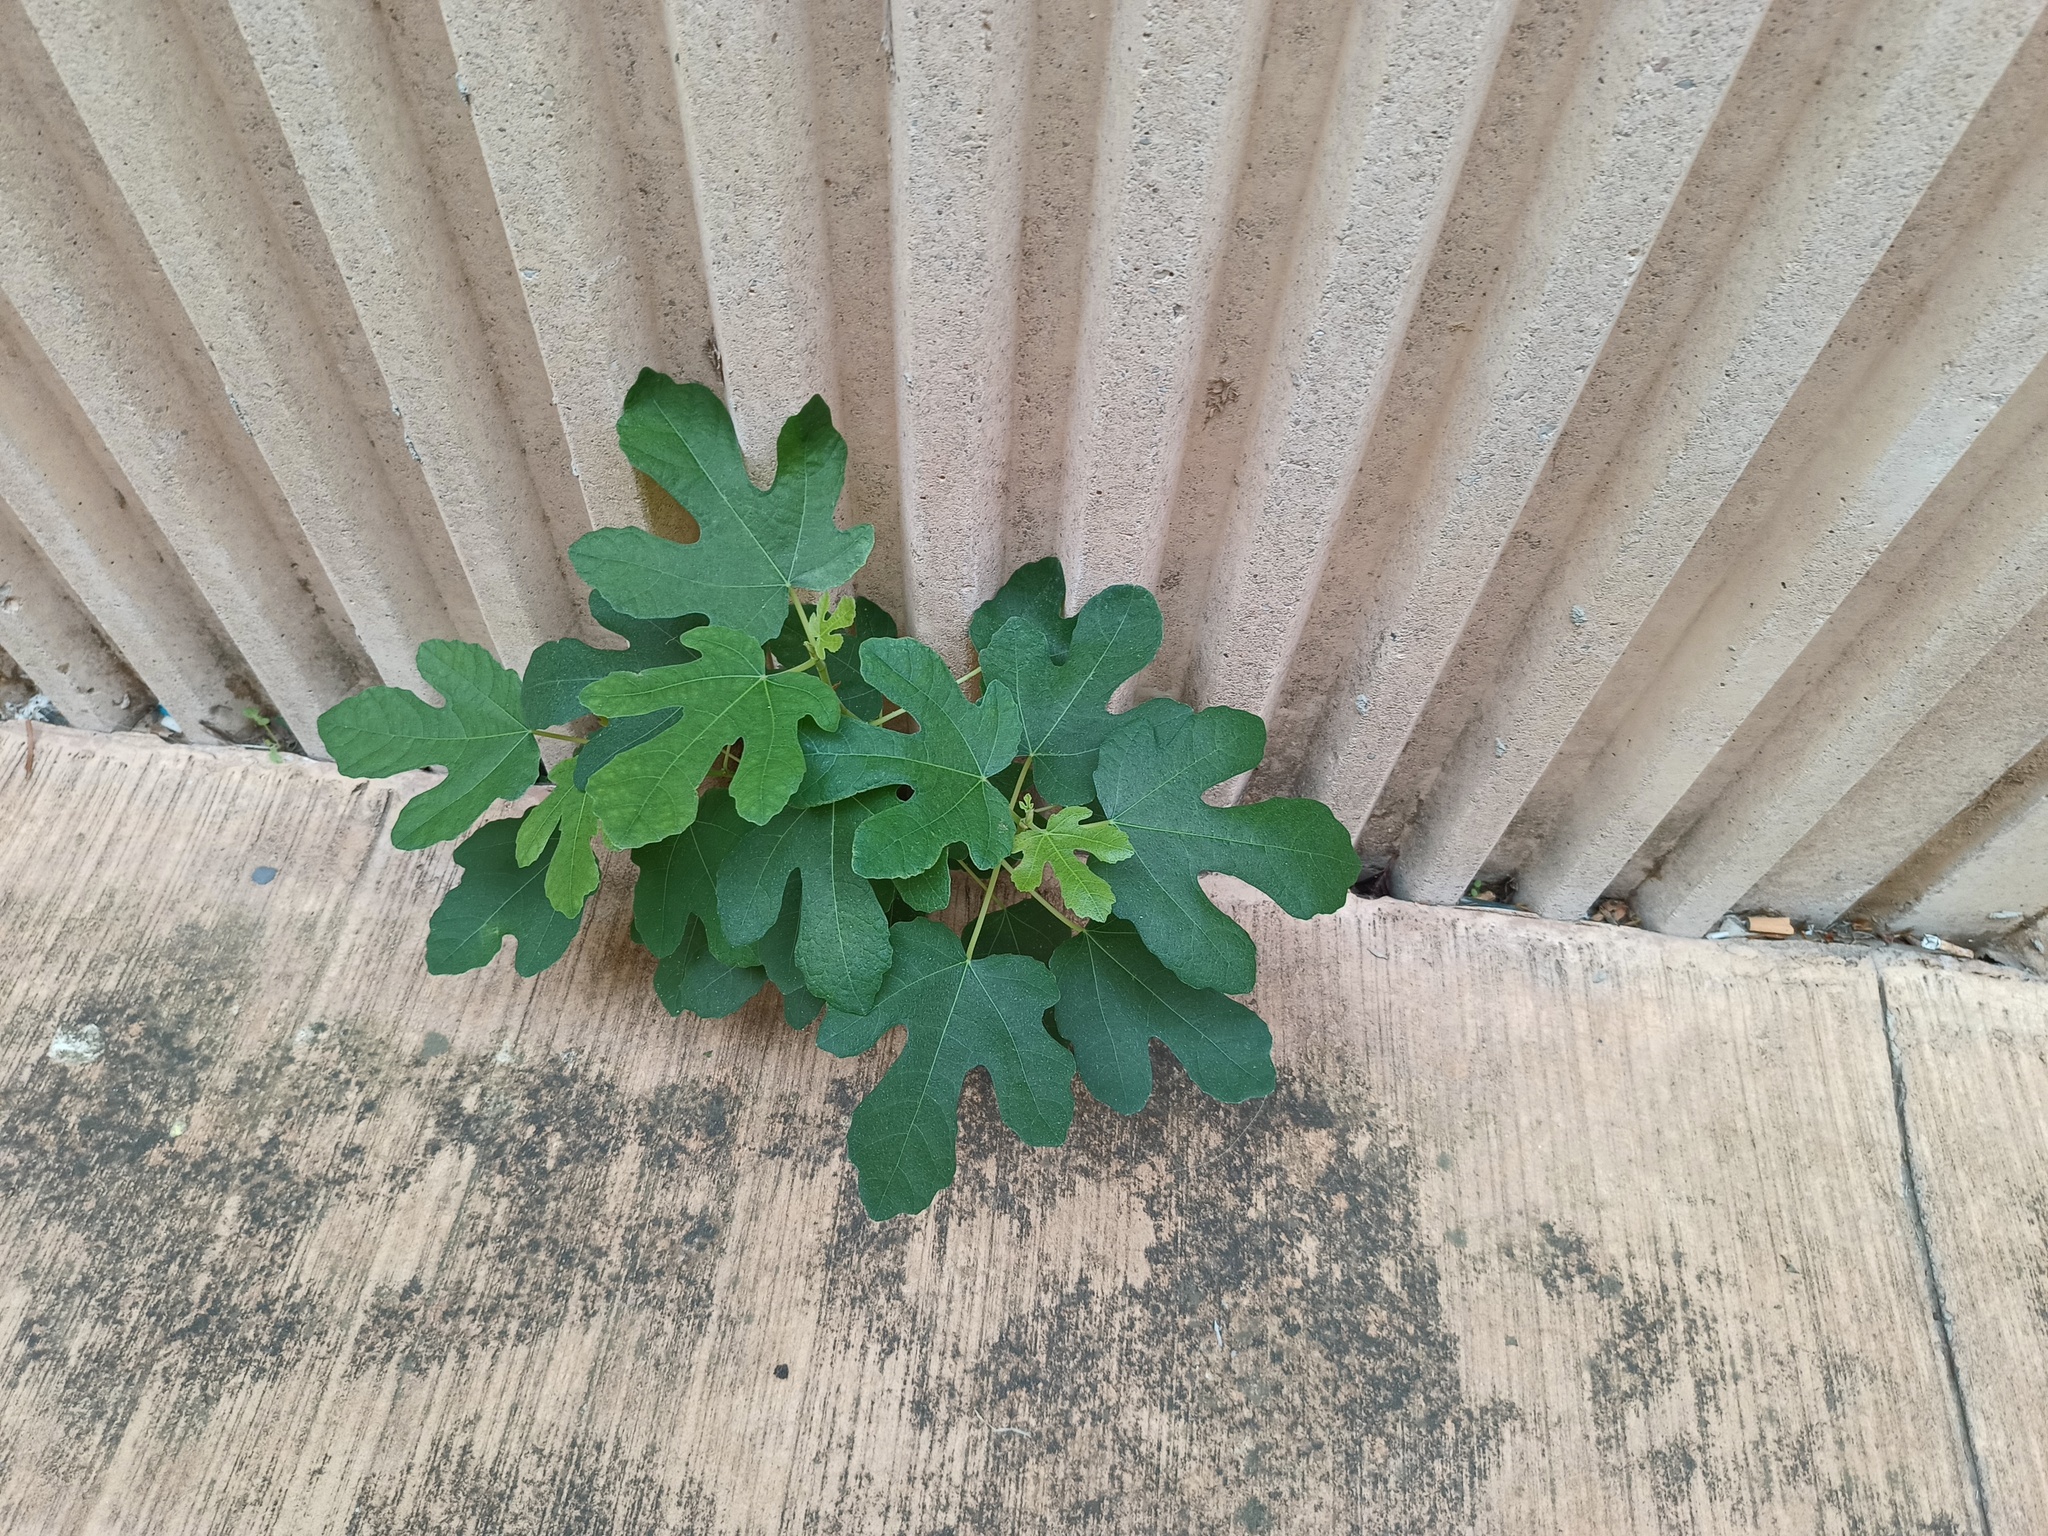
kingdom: Plantae
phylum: Tracheophyta
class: Magnoliopsida
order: Rosales
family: Moraceae
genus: Ficus
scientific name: Ficus carica
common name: Fig
